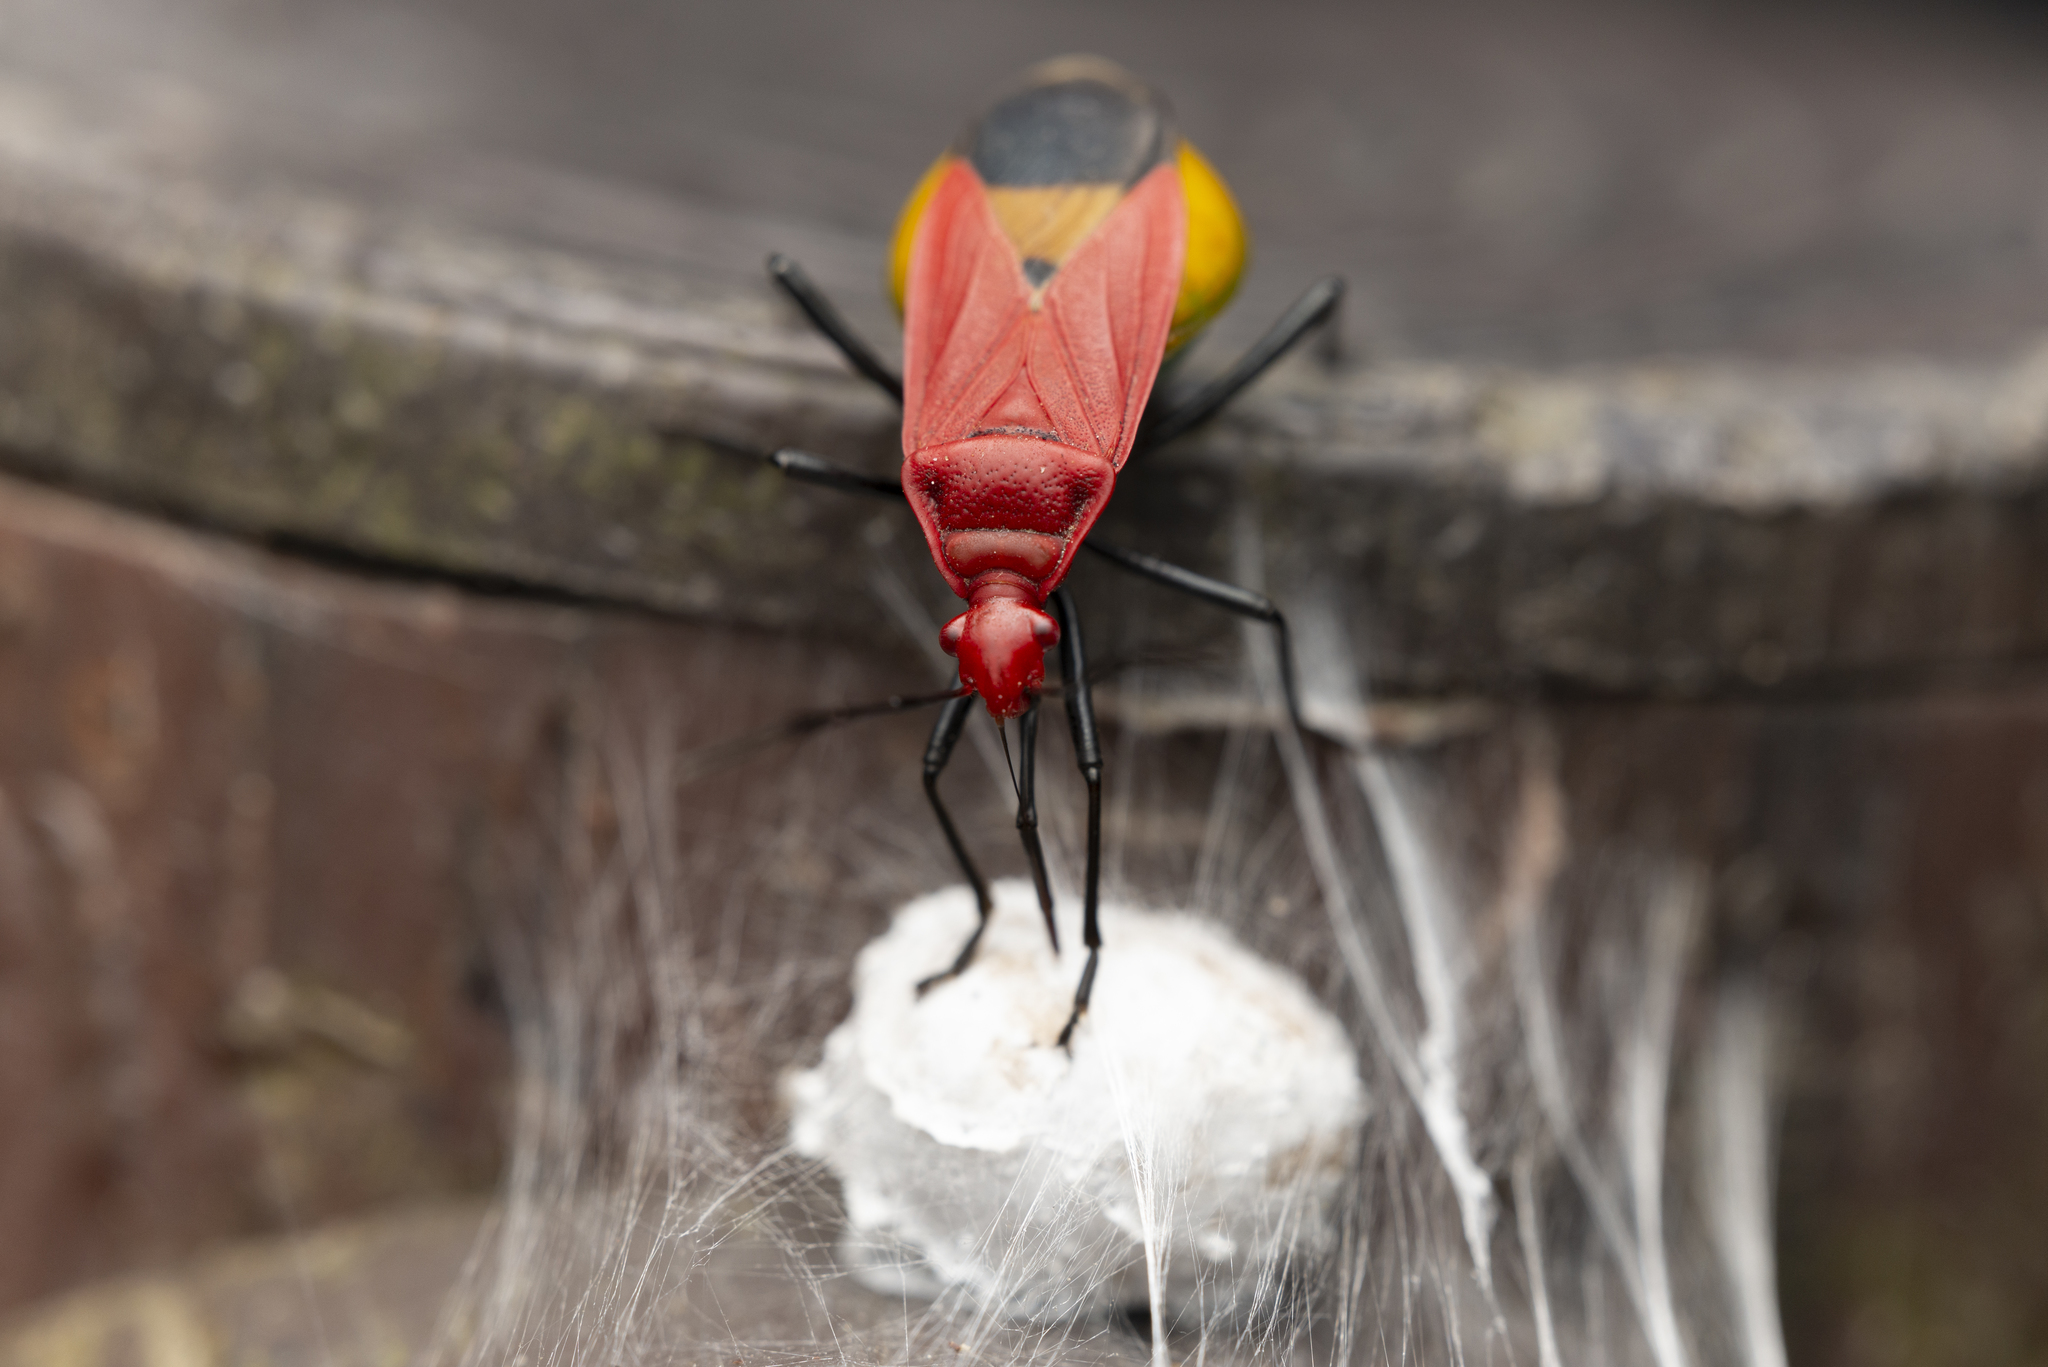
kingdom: Animalia
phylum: Arthropoda
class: Insecta
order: Hemiptera
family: Pyrrhocoridae
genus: Dindymus
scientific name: Dindymus
